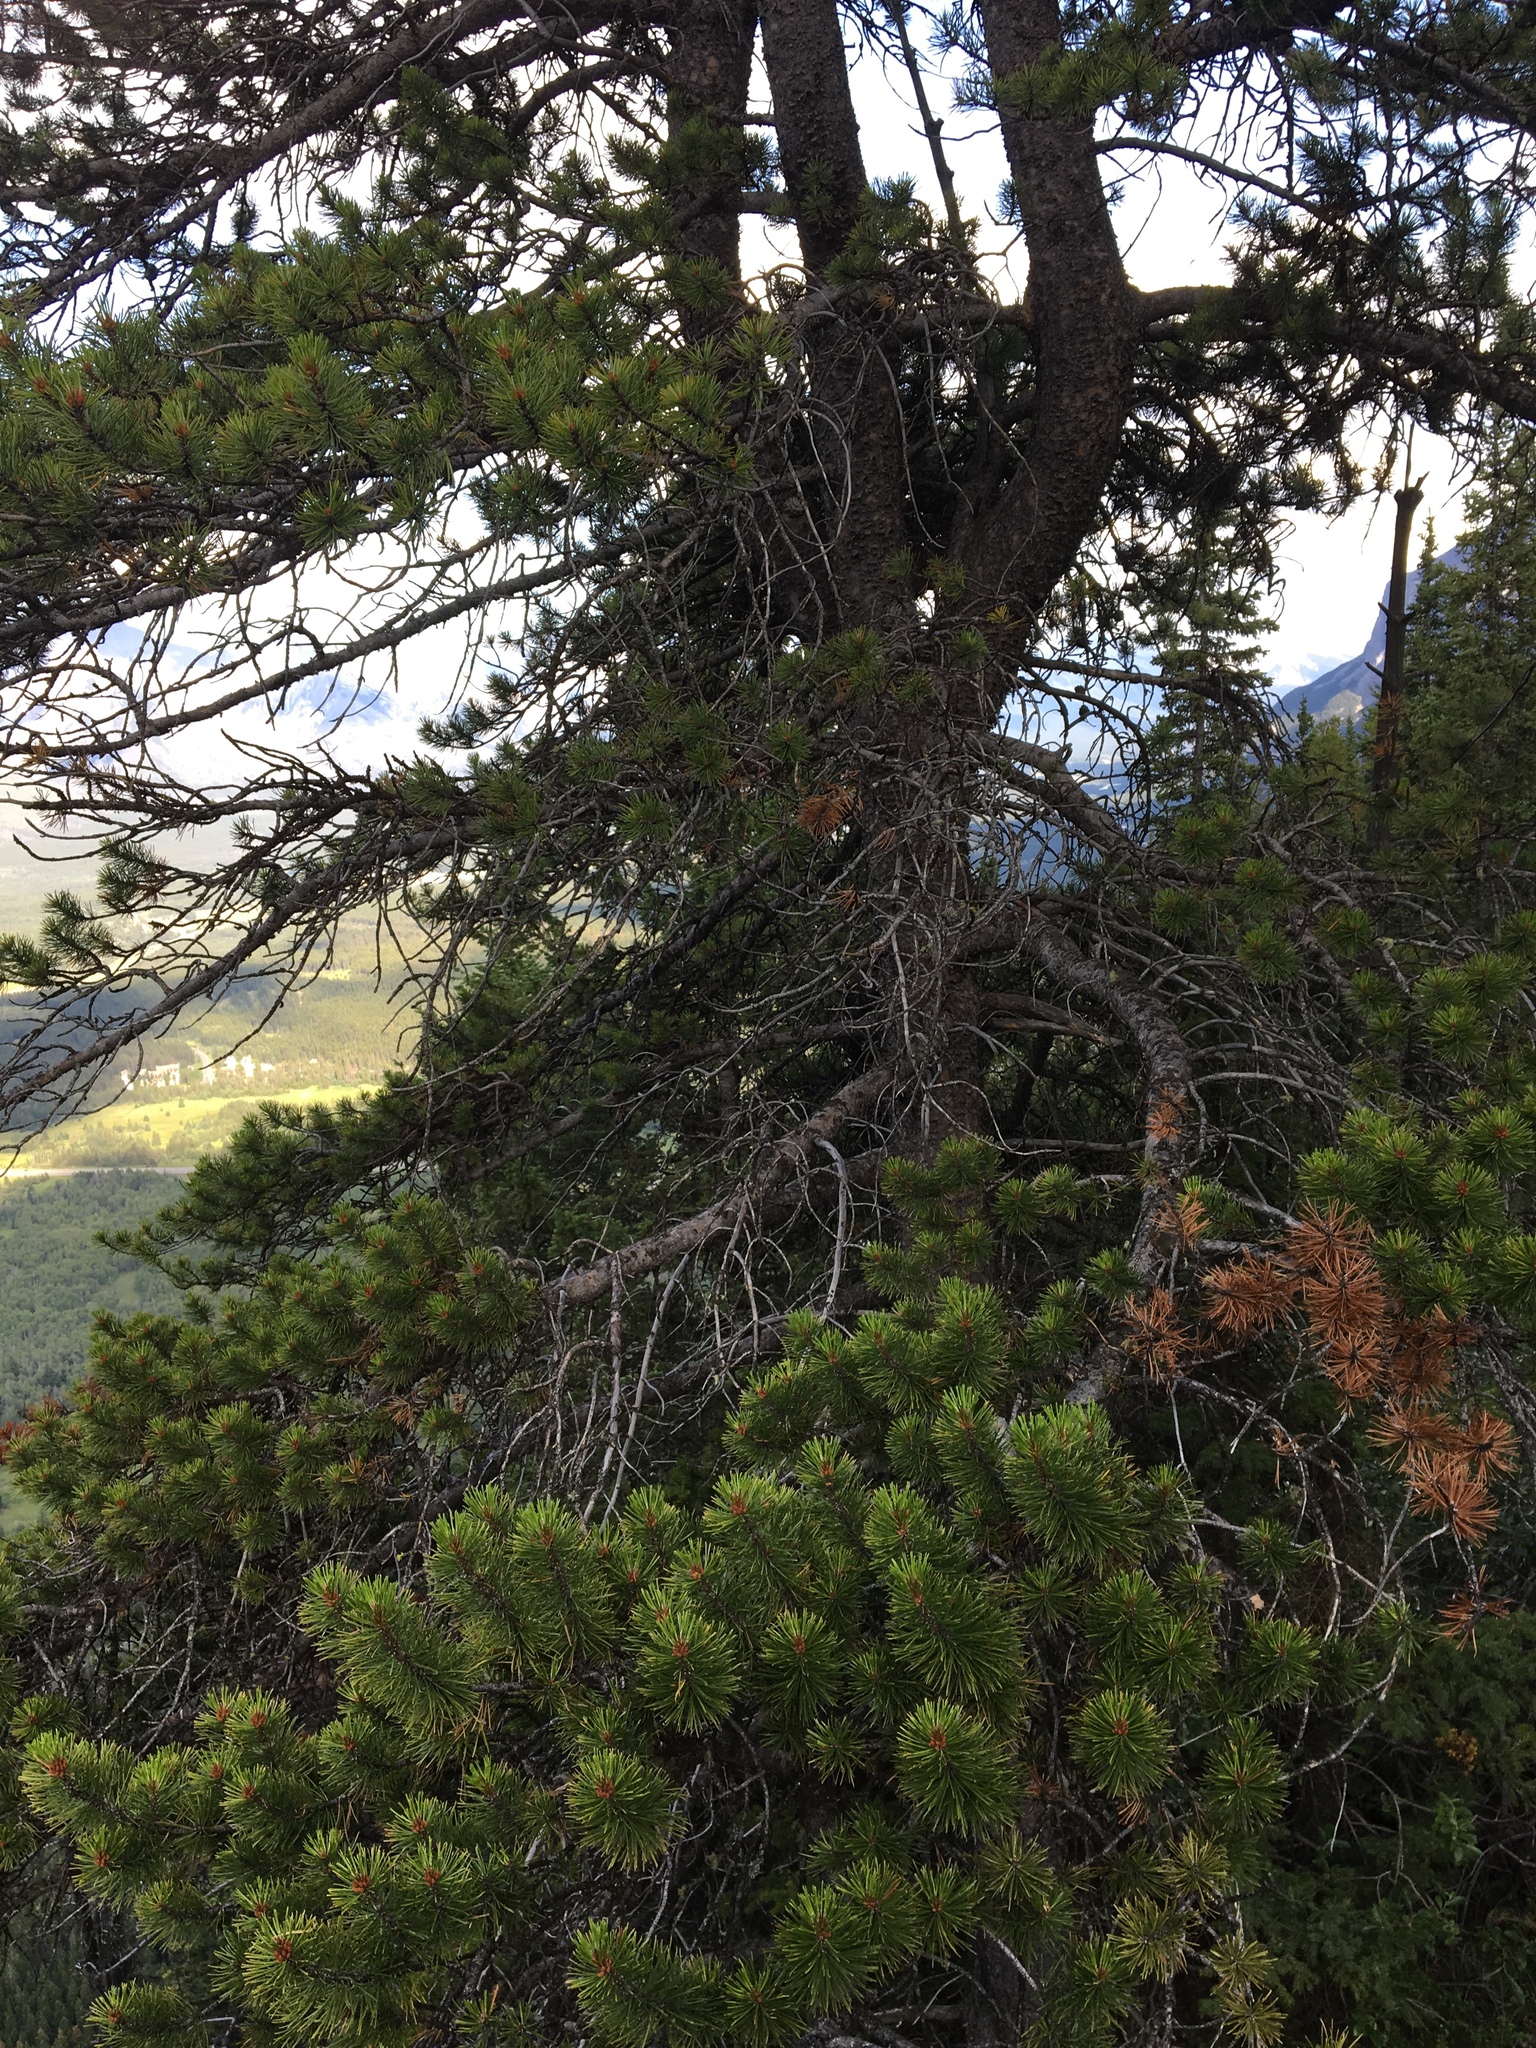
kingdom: Plantae
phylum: Tracheophyta
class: Pinopsida
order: Pinales
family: Pinaceae
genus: Pinus
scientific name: Pinus contorta
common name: Lodgepole pine
